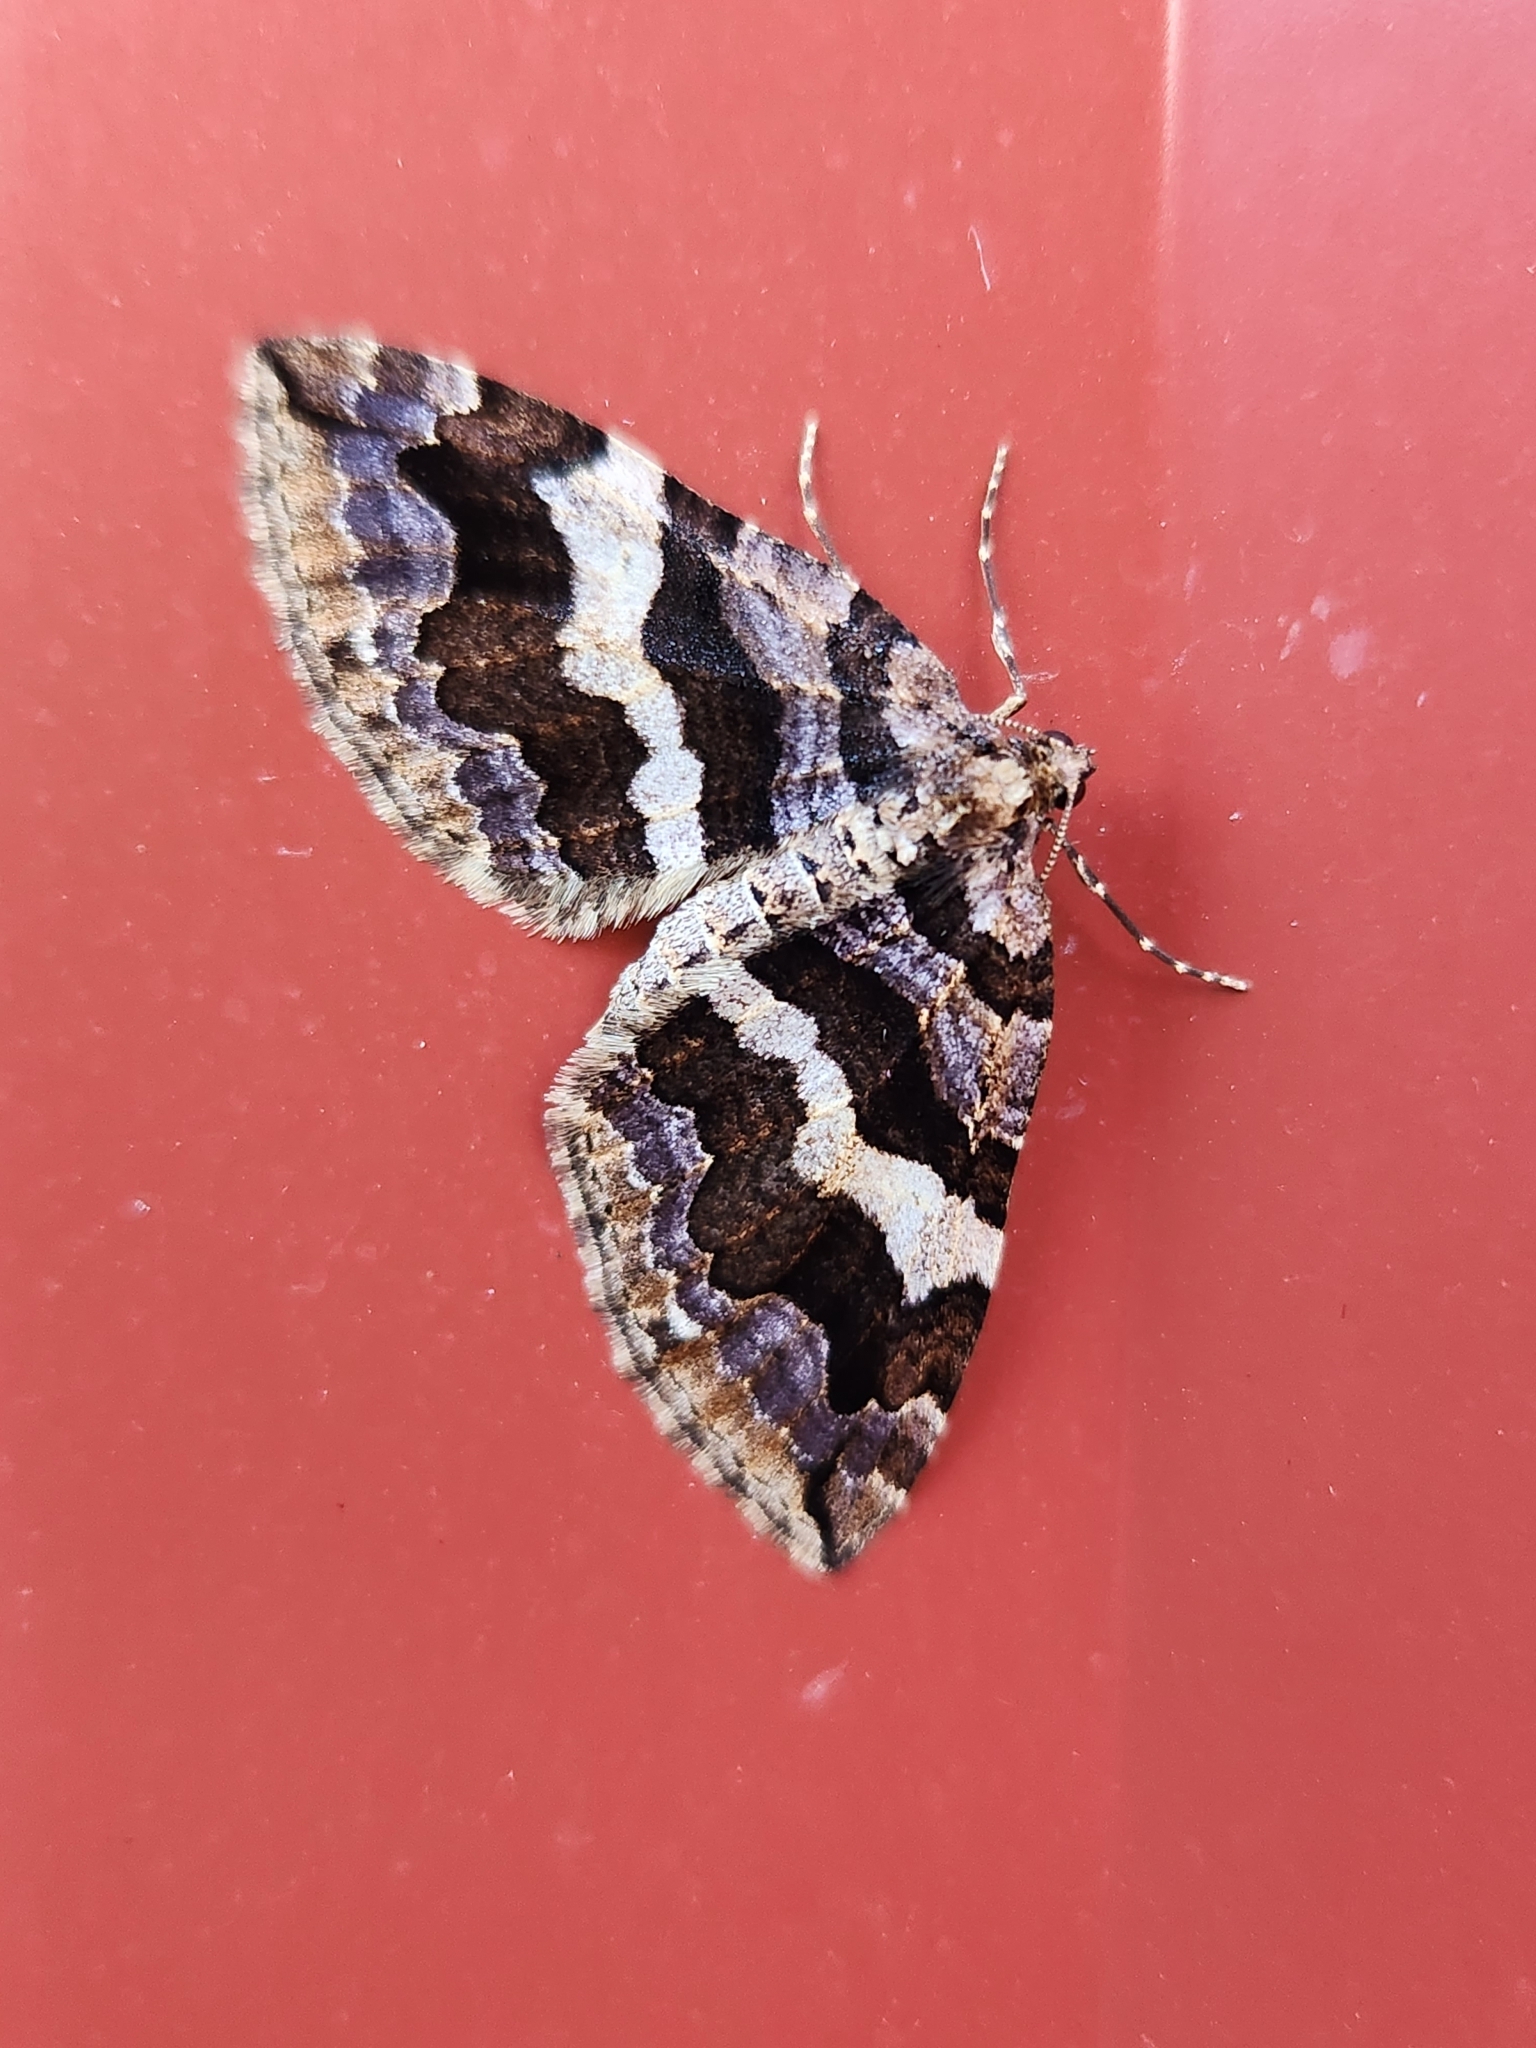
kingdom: Animalia
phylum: Arthropoda
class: Insecta
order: Lepidoptera
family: Geometridae
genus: Anticlea
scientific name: Anticlea vasiliata
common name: Variable carpet
